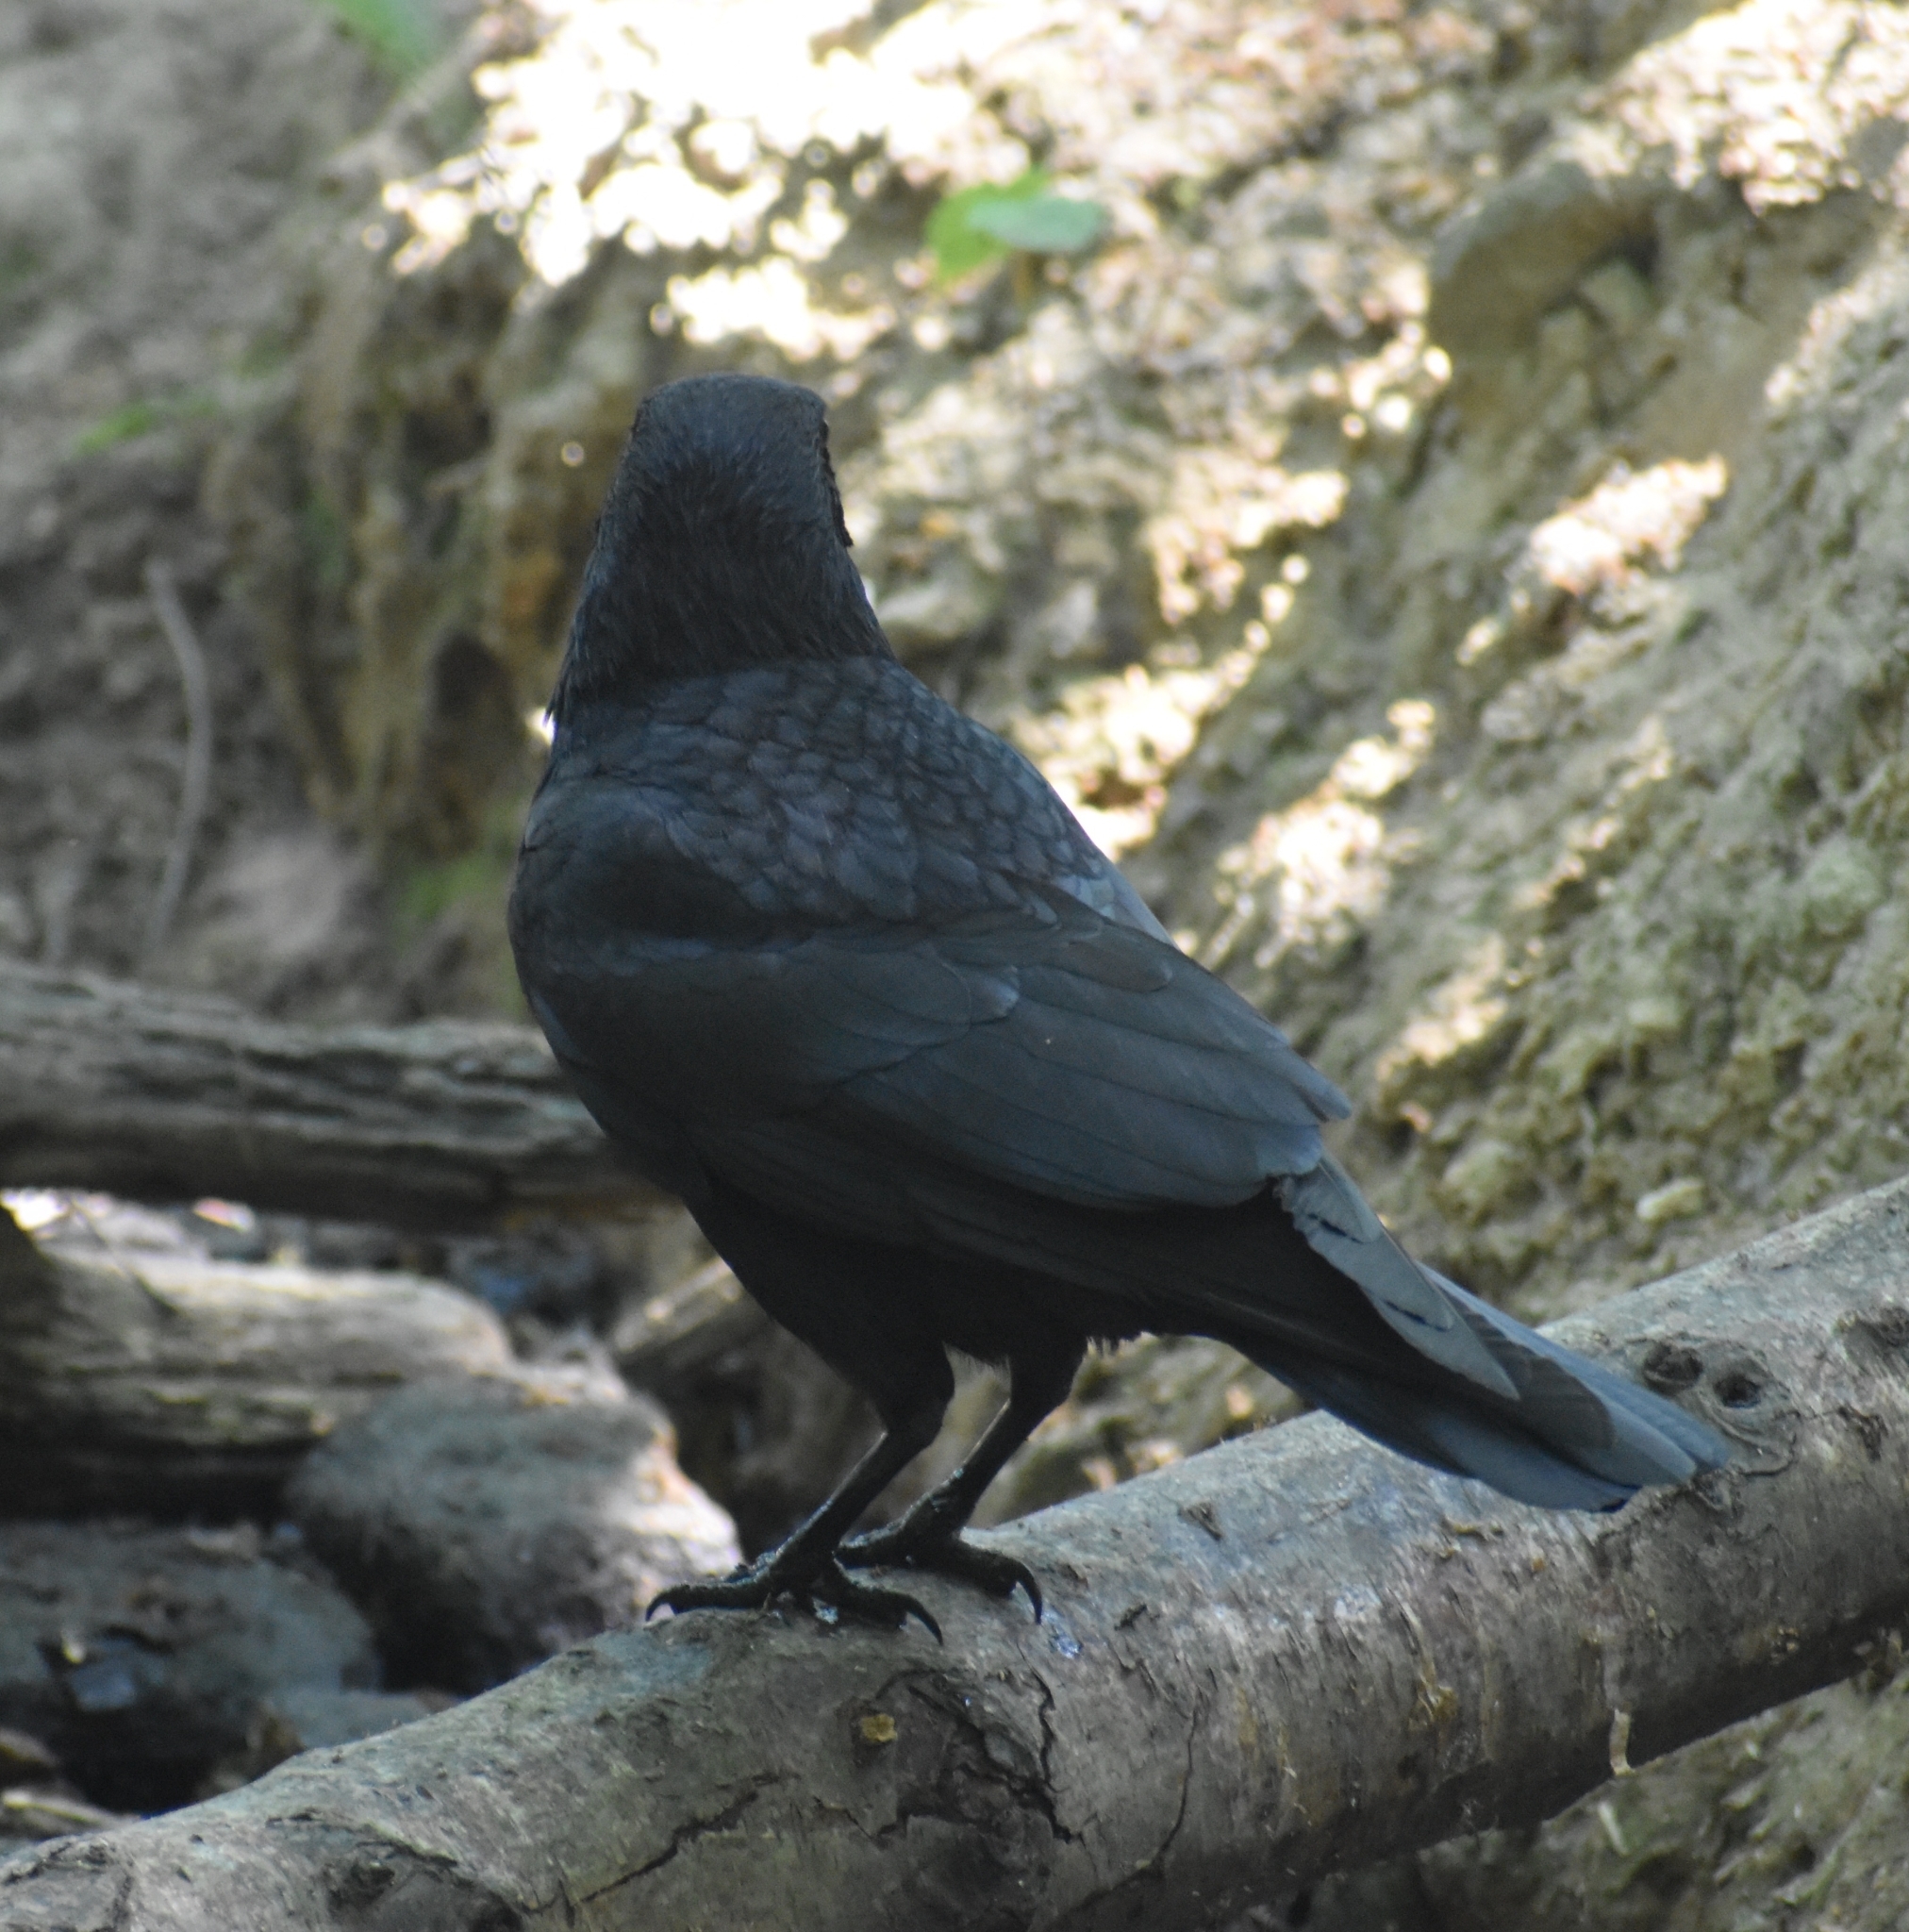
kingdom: Animalia
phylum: Chordata
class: Aves
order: Passeriformes
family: Corvidae
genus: Corvus
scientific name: Corvus corone
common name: Carrion crow
